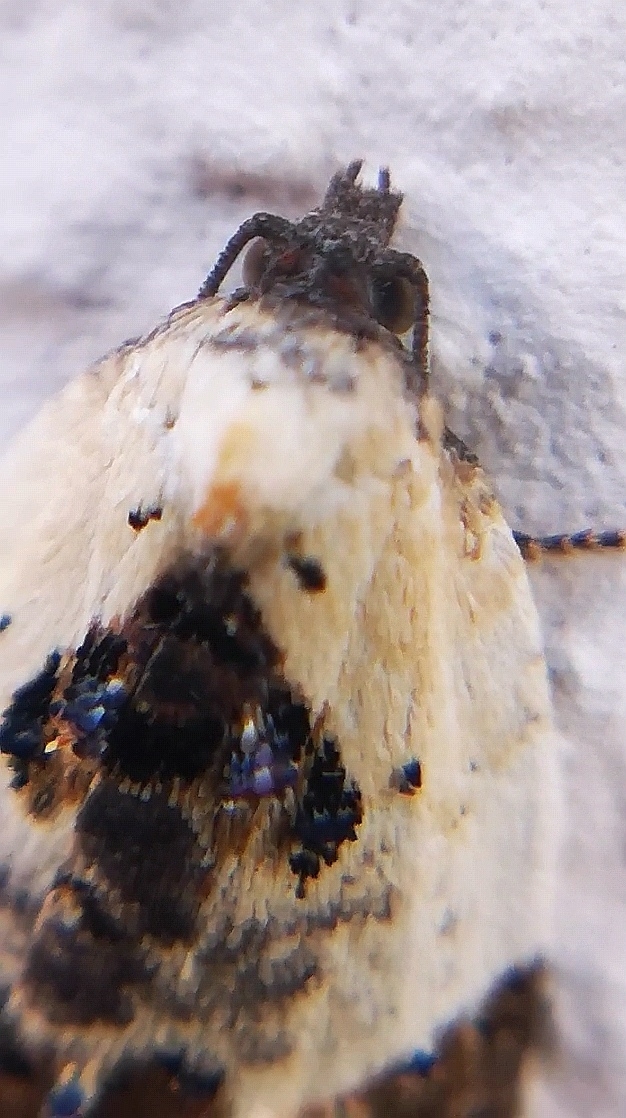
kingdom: Animalia
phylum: Arthropoda
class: Insecta
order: Lepidoptera
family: Tortricidae
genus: Acleris
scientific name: Acleris variegana
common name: Garden rose tortrix
